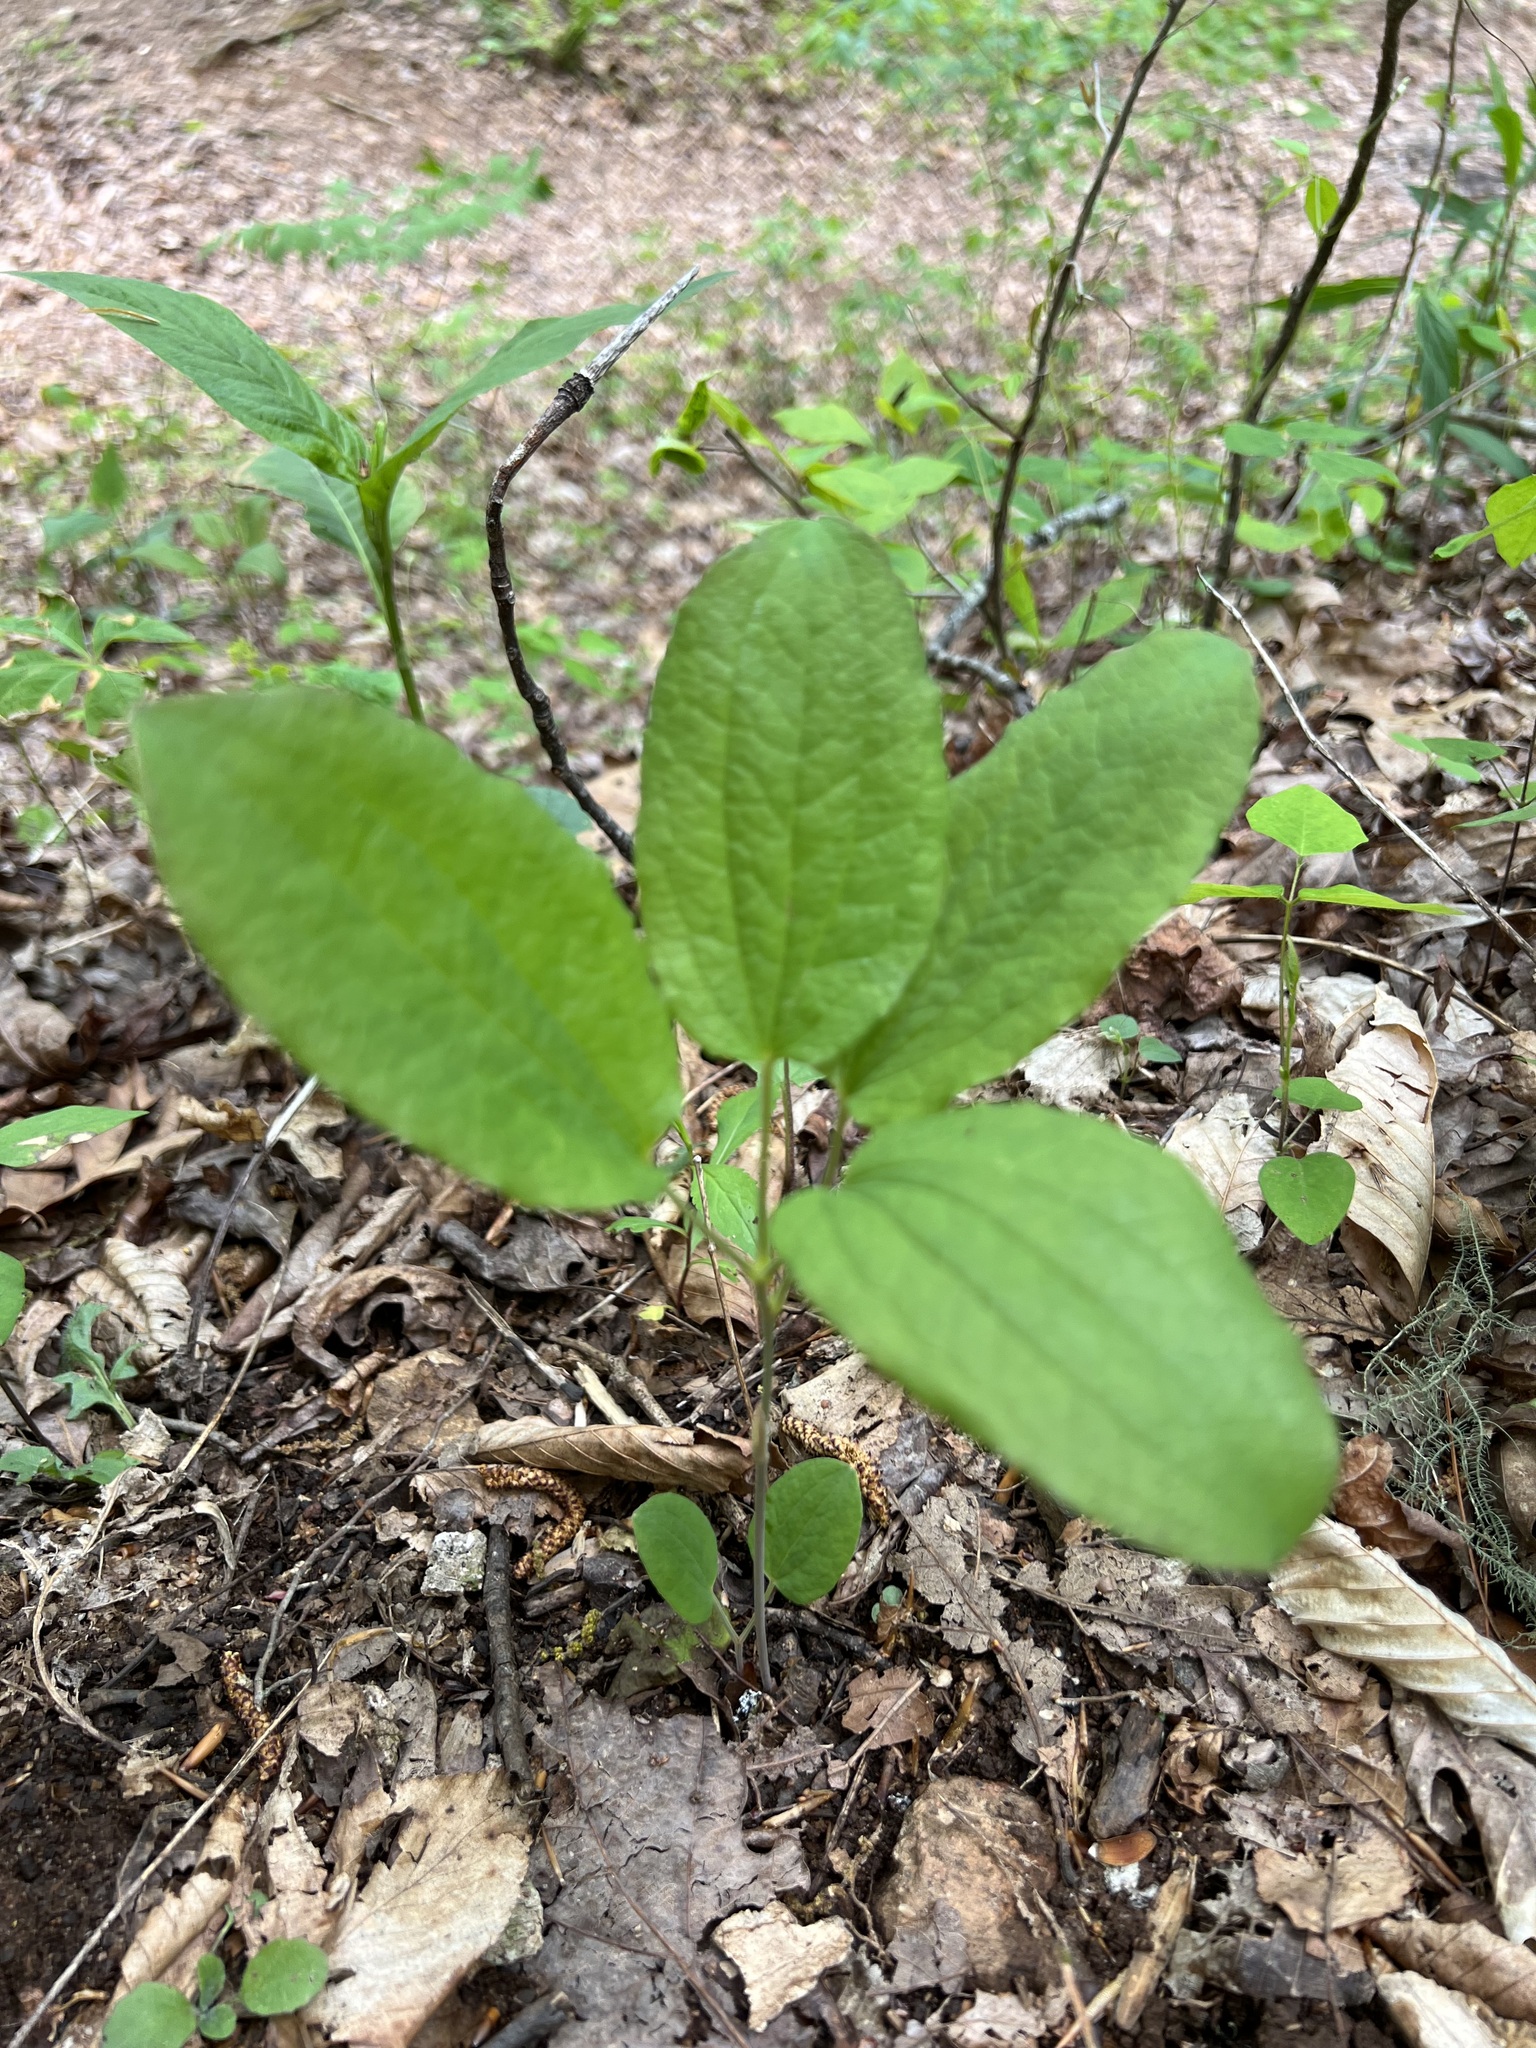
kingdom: Plantae
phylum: Tracheophyta
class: Liliopsida
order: Liliales
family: Smilacaceae
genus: Smilax
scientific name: Smilax hugeri
